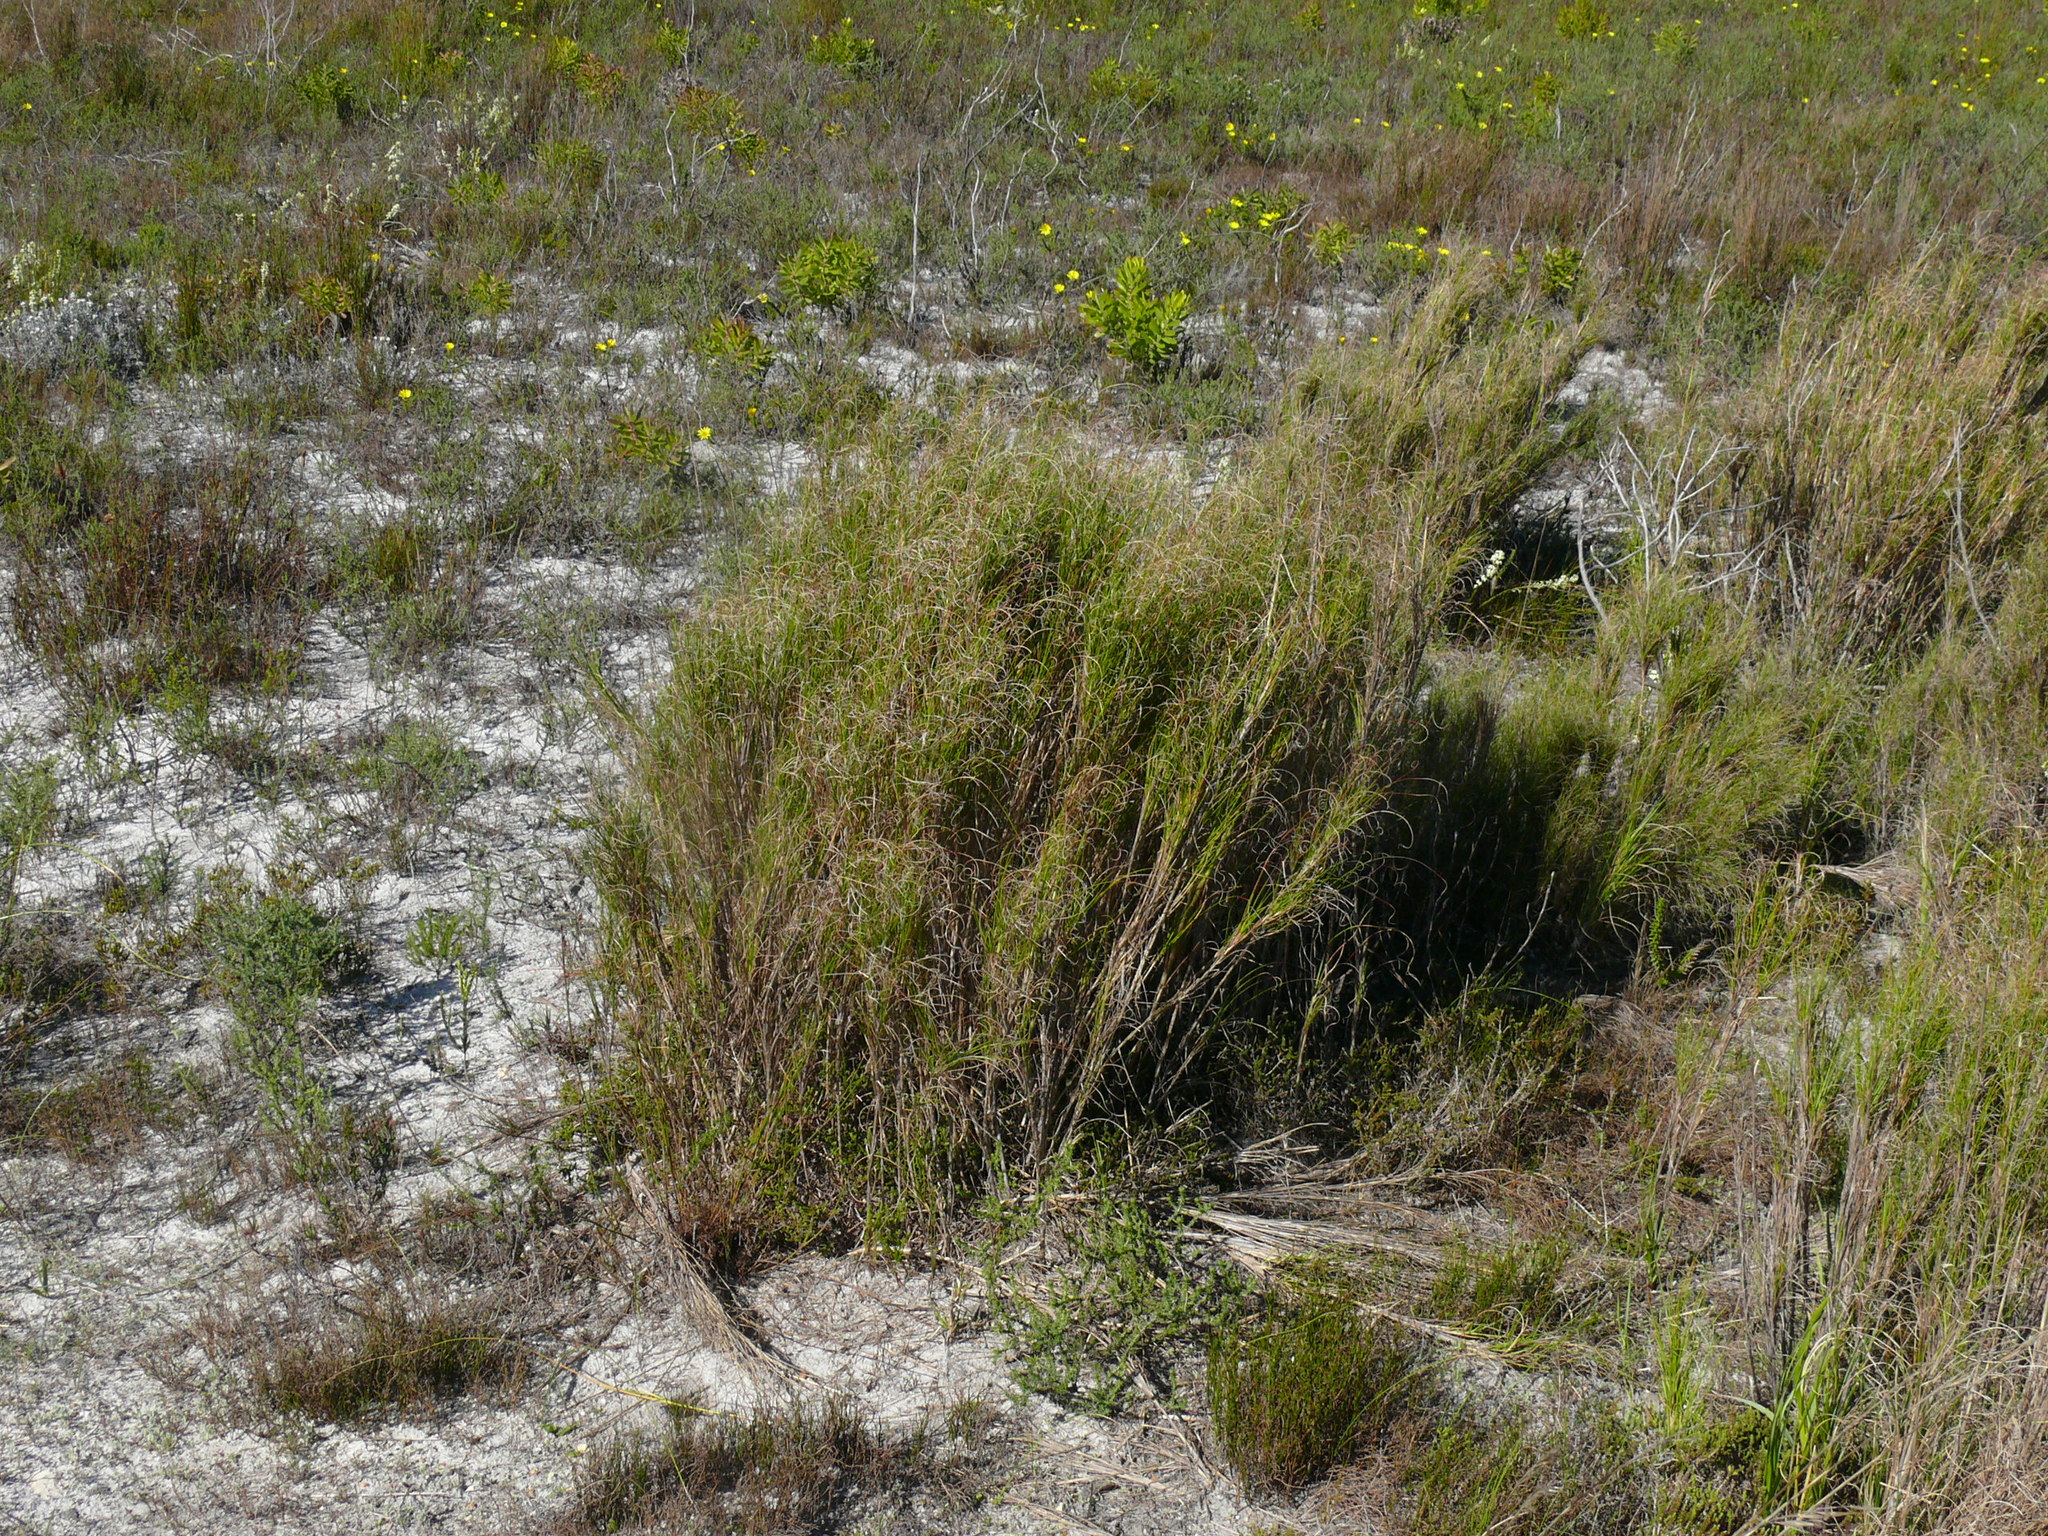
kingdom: Plantae
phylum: Tracheophyta
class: Liliopsida
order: Poales
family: Poaceae
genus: Pseudopentameris
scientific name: Pseudopentameris macrantha
